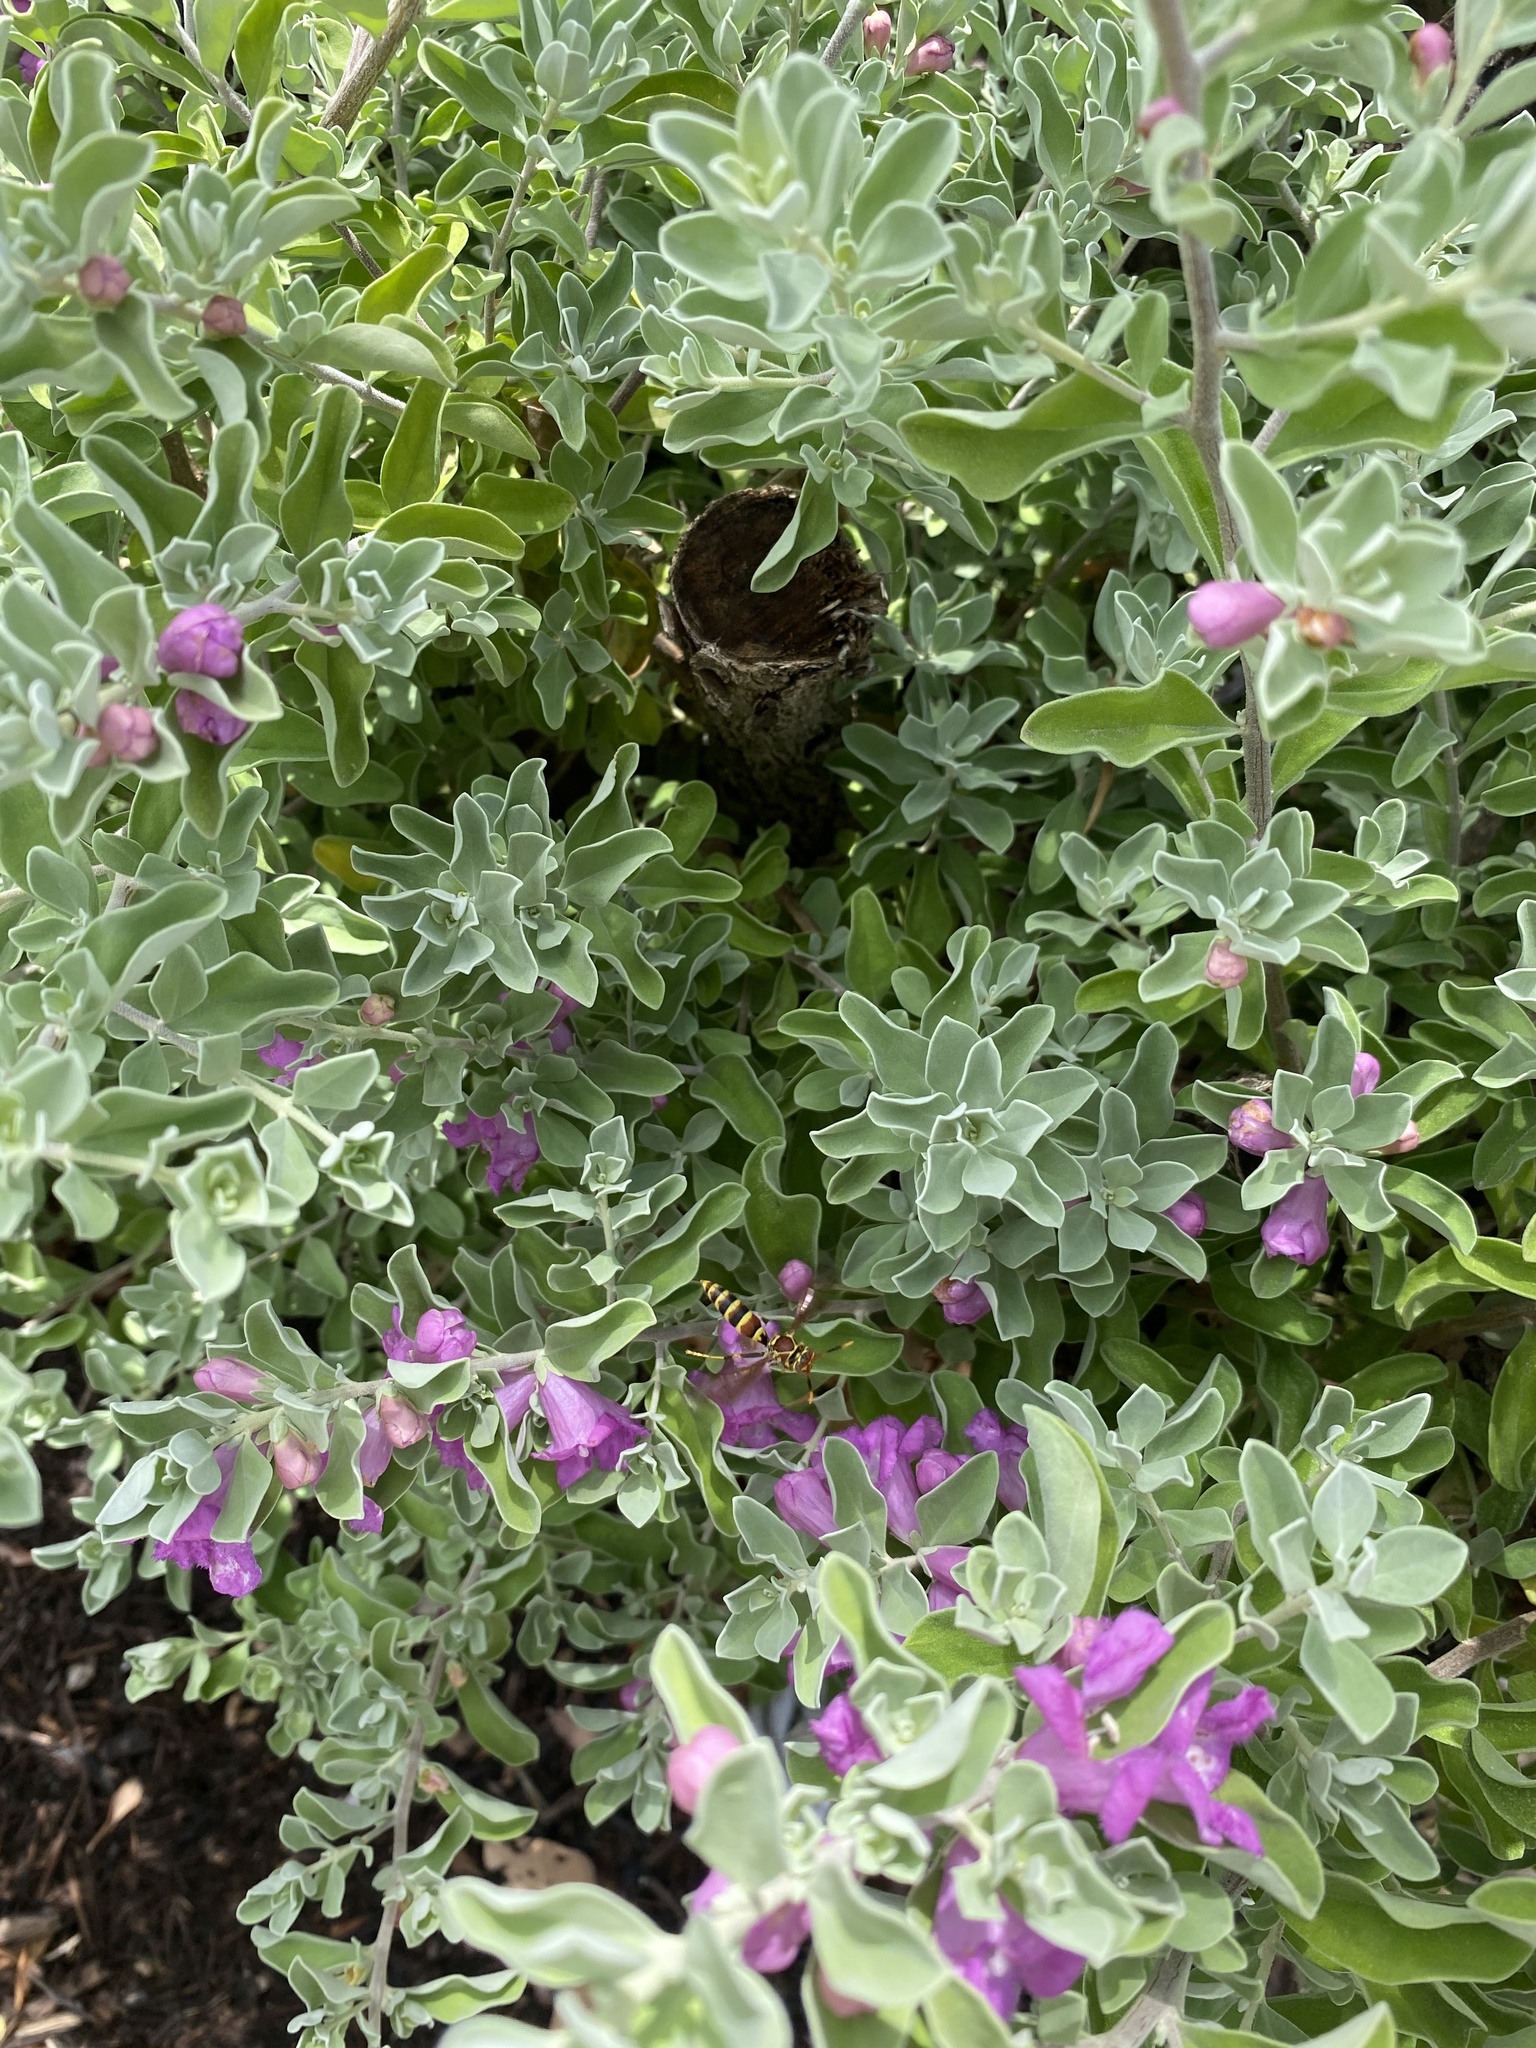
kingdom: Animalia
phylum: Arthropoda
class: Insecta
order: Hymenoptera
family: Eumenidae
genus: Polistes
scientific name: Polistes exclamans
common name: Paper wasp
